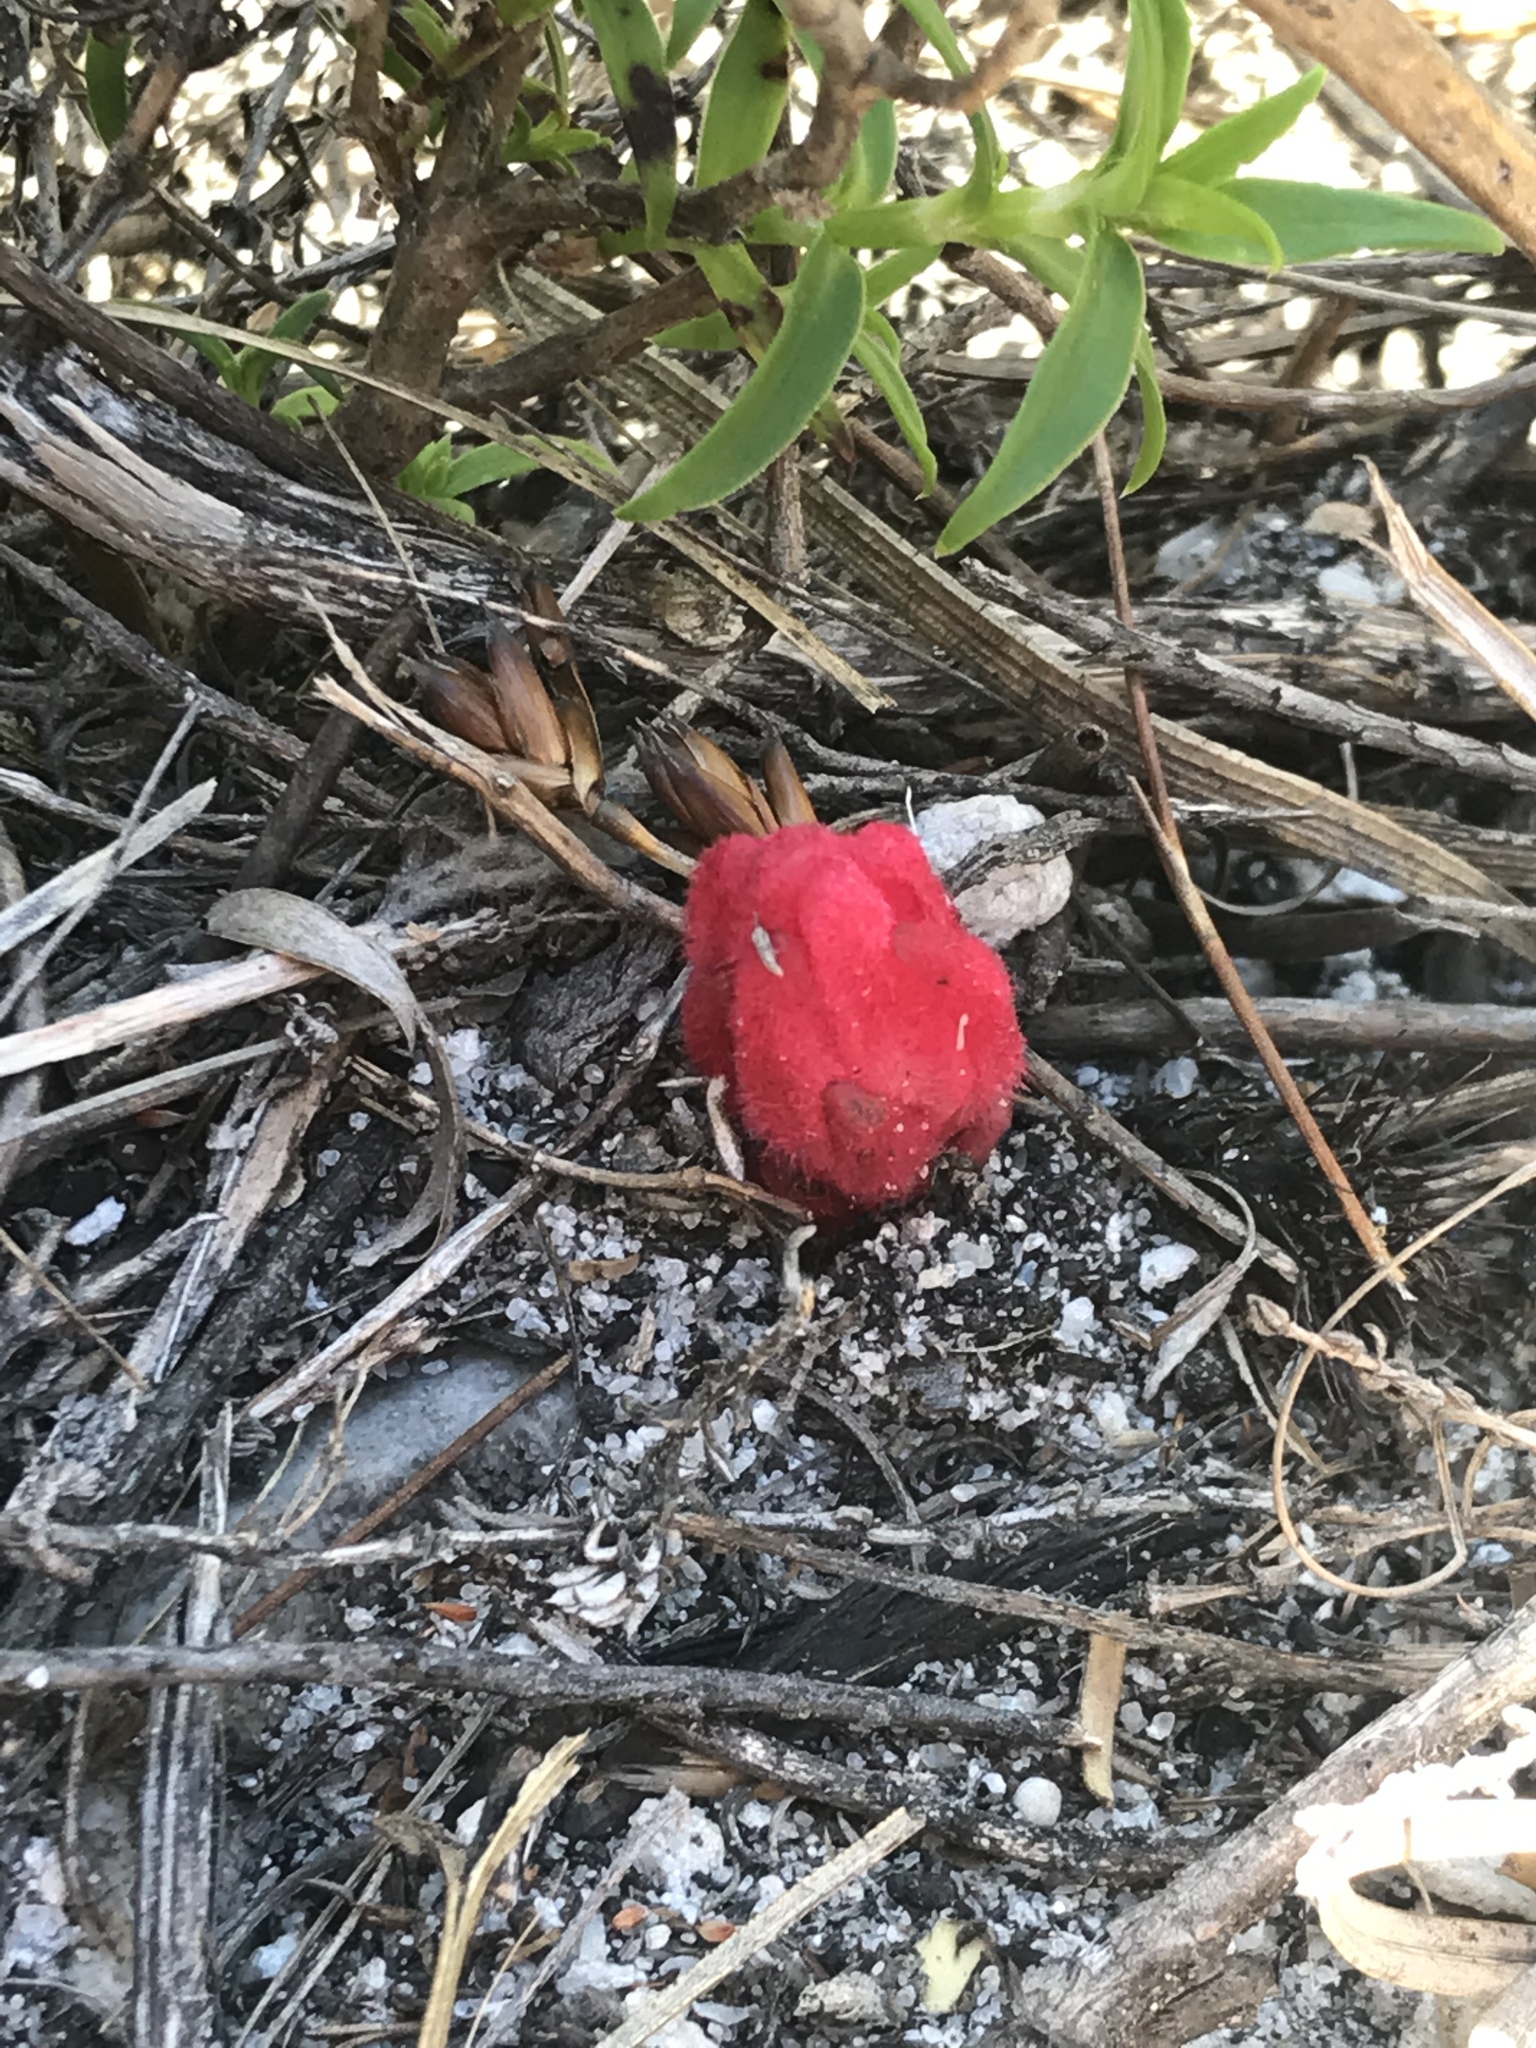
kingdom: Plantae
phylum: Tracheophyta
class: Magnoliopsida
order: Lamiales
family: Orobanchaceae
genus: Hyobanche
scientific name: Hyobanche sanguinea
